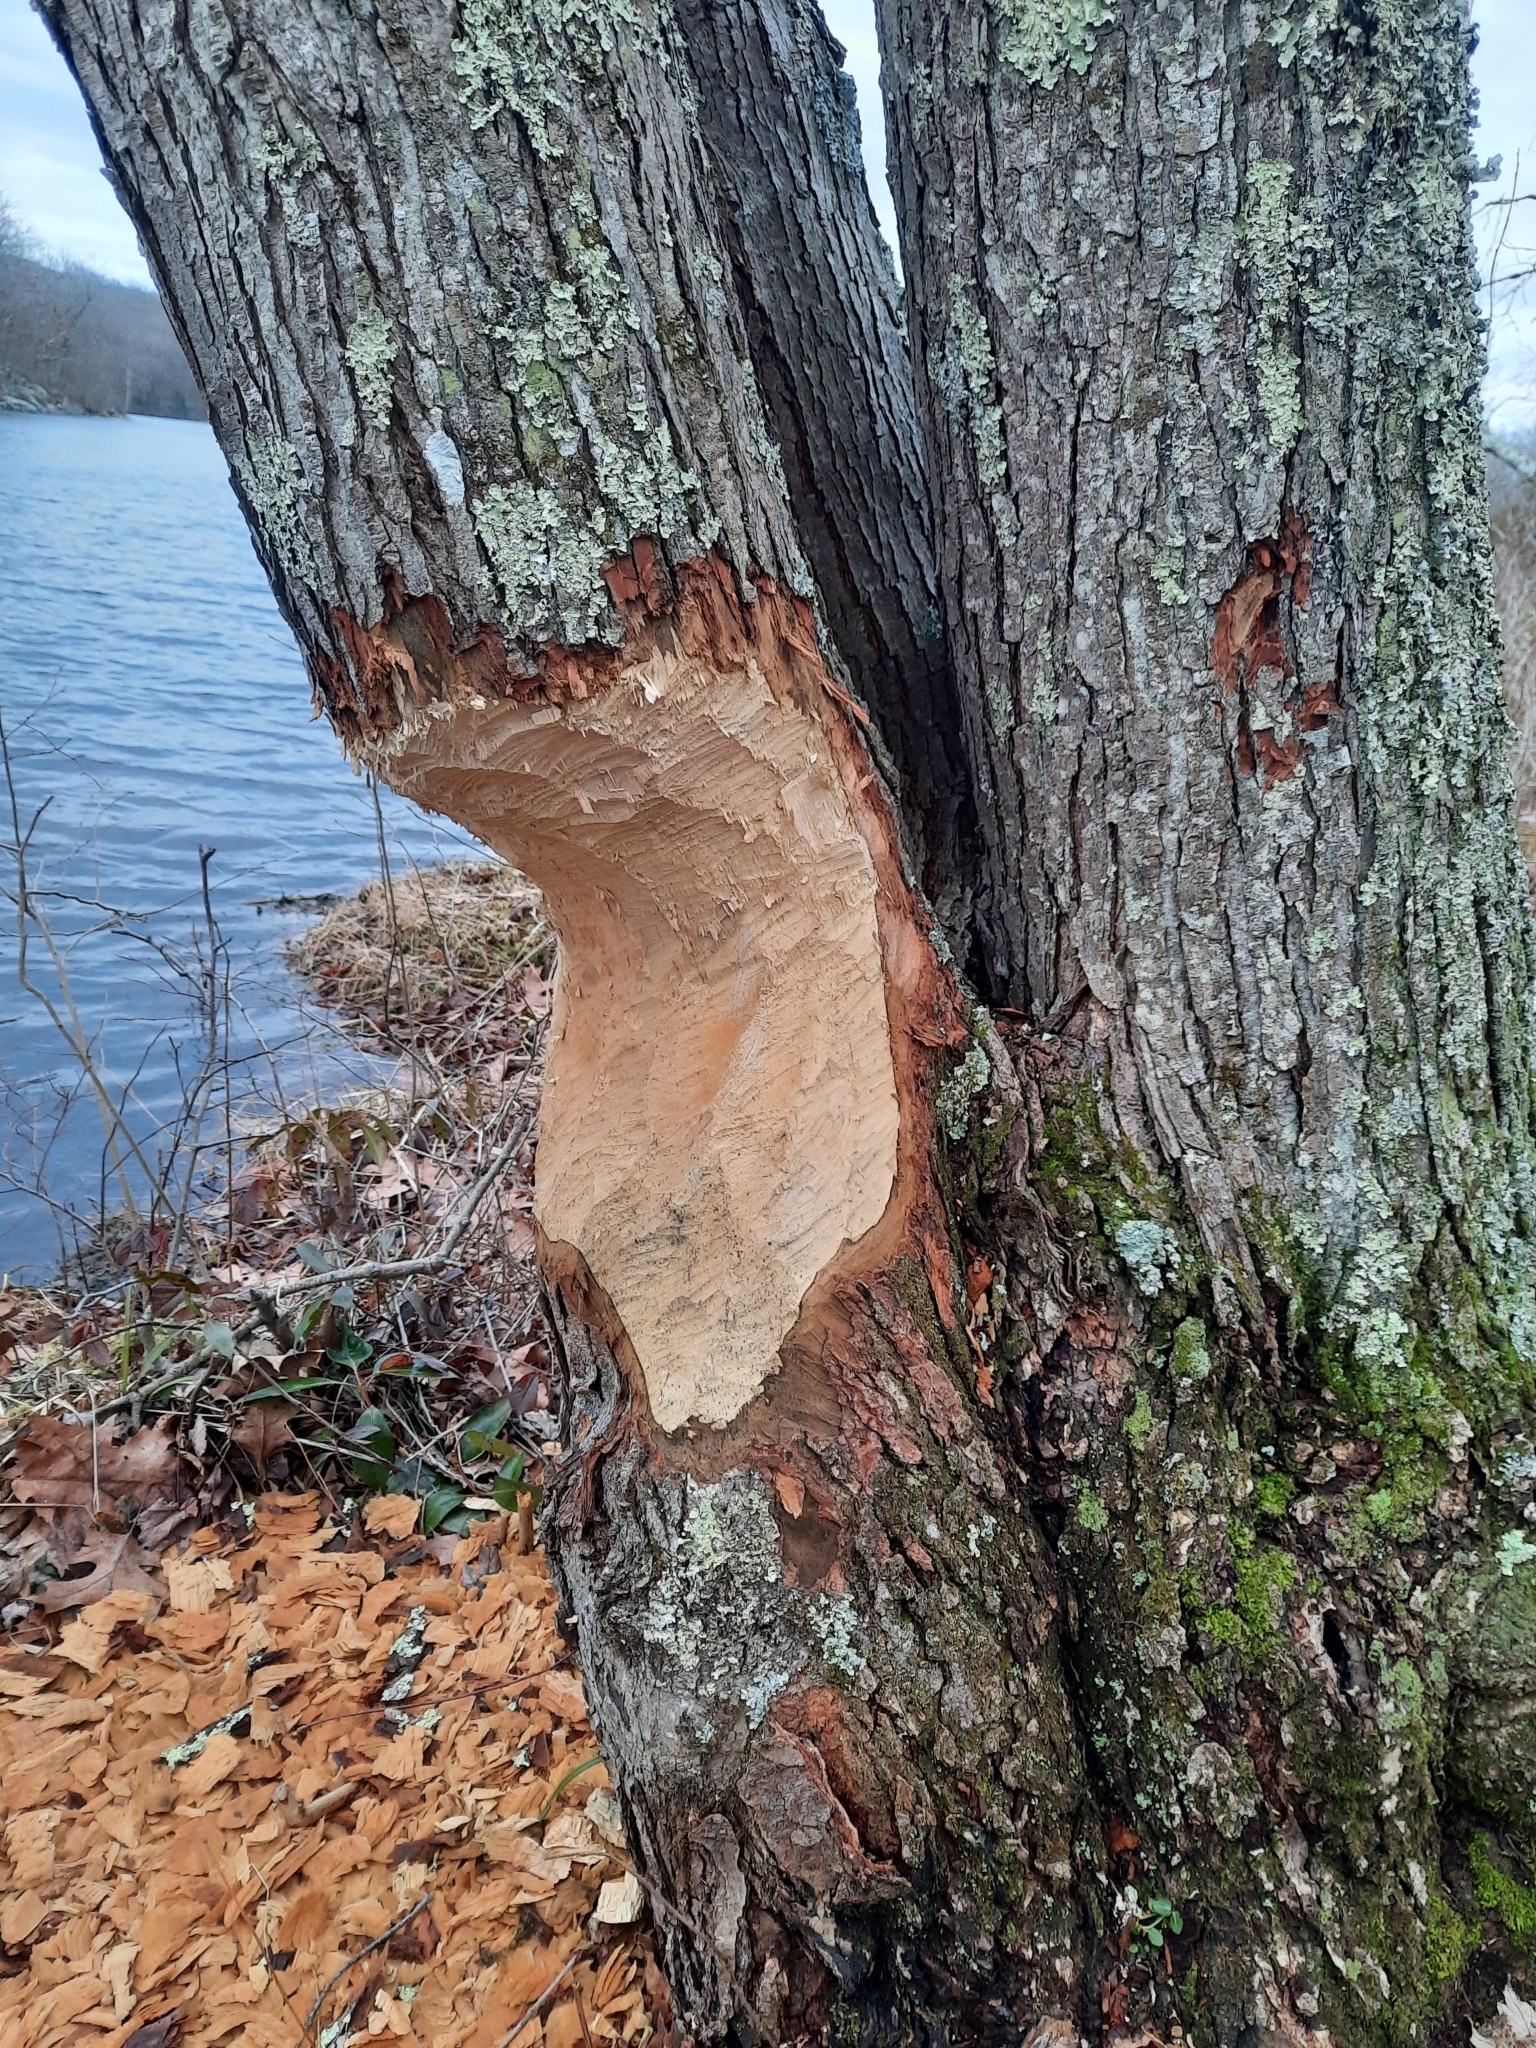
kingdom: Animalia
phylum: Chordata
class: Mammalia
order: Rodentia
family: Castoridae
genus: Castor
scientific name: Castor canadensis
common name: American beaver
